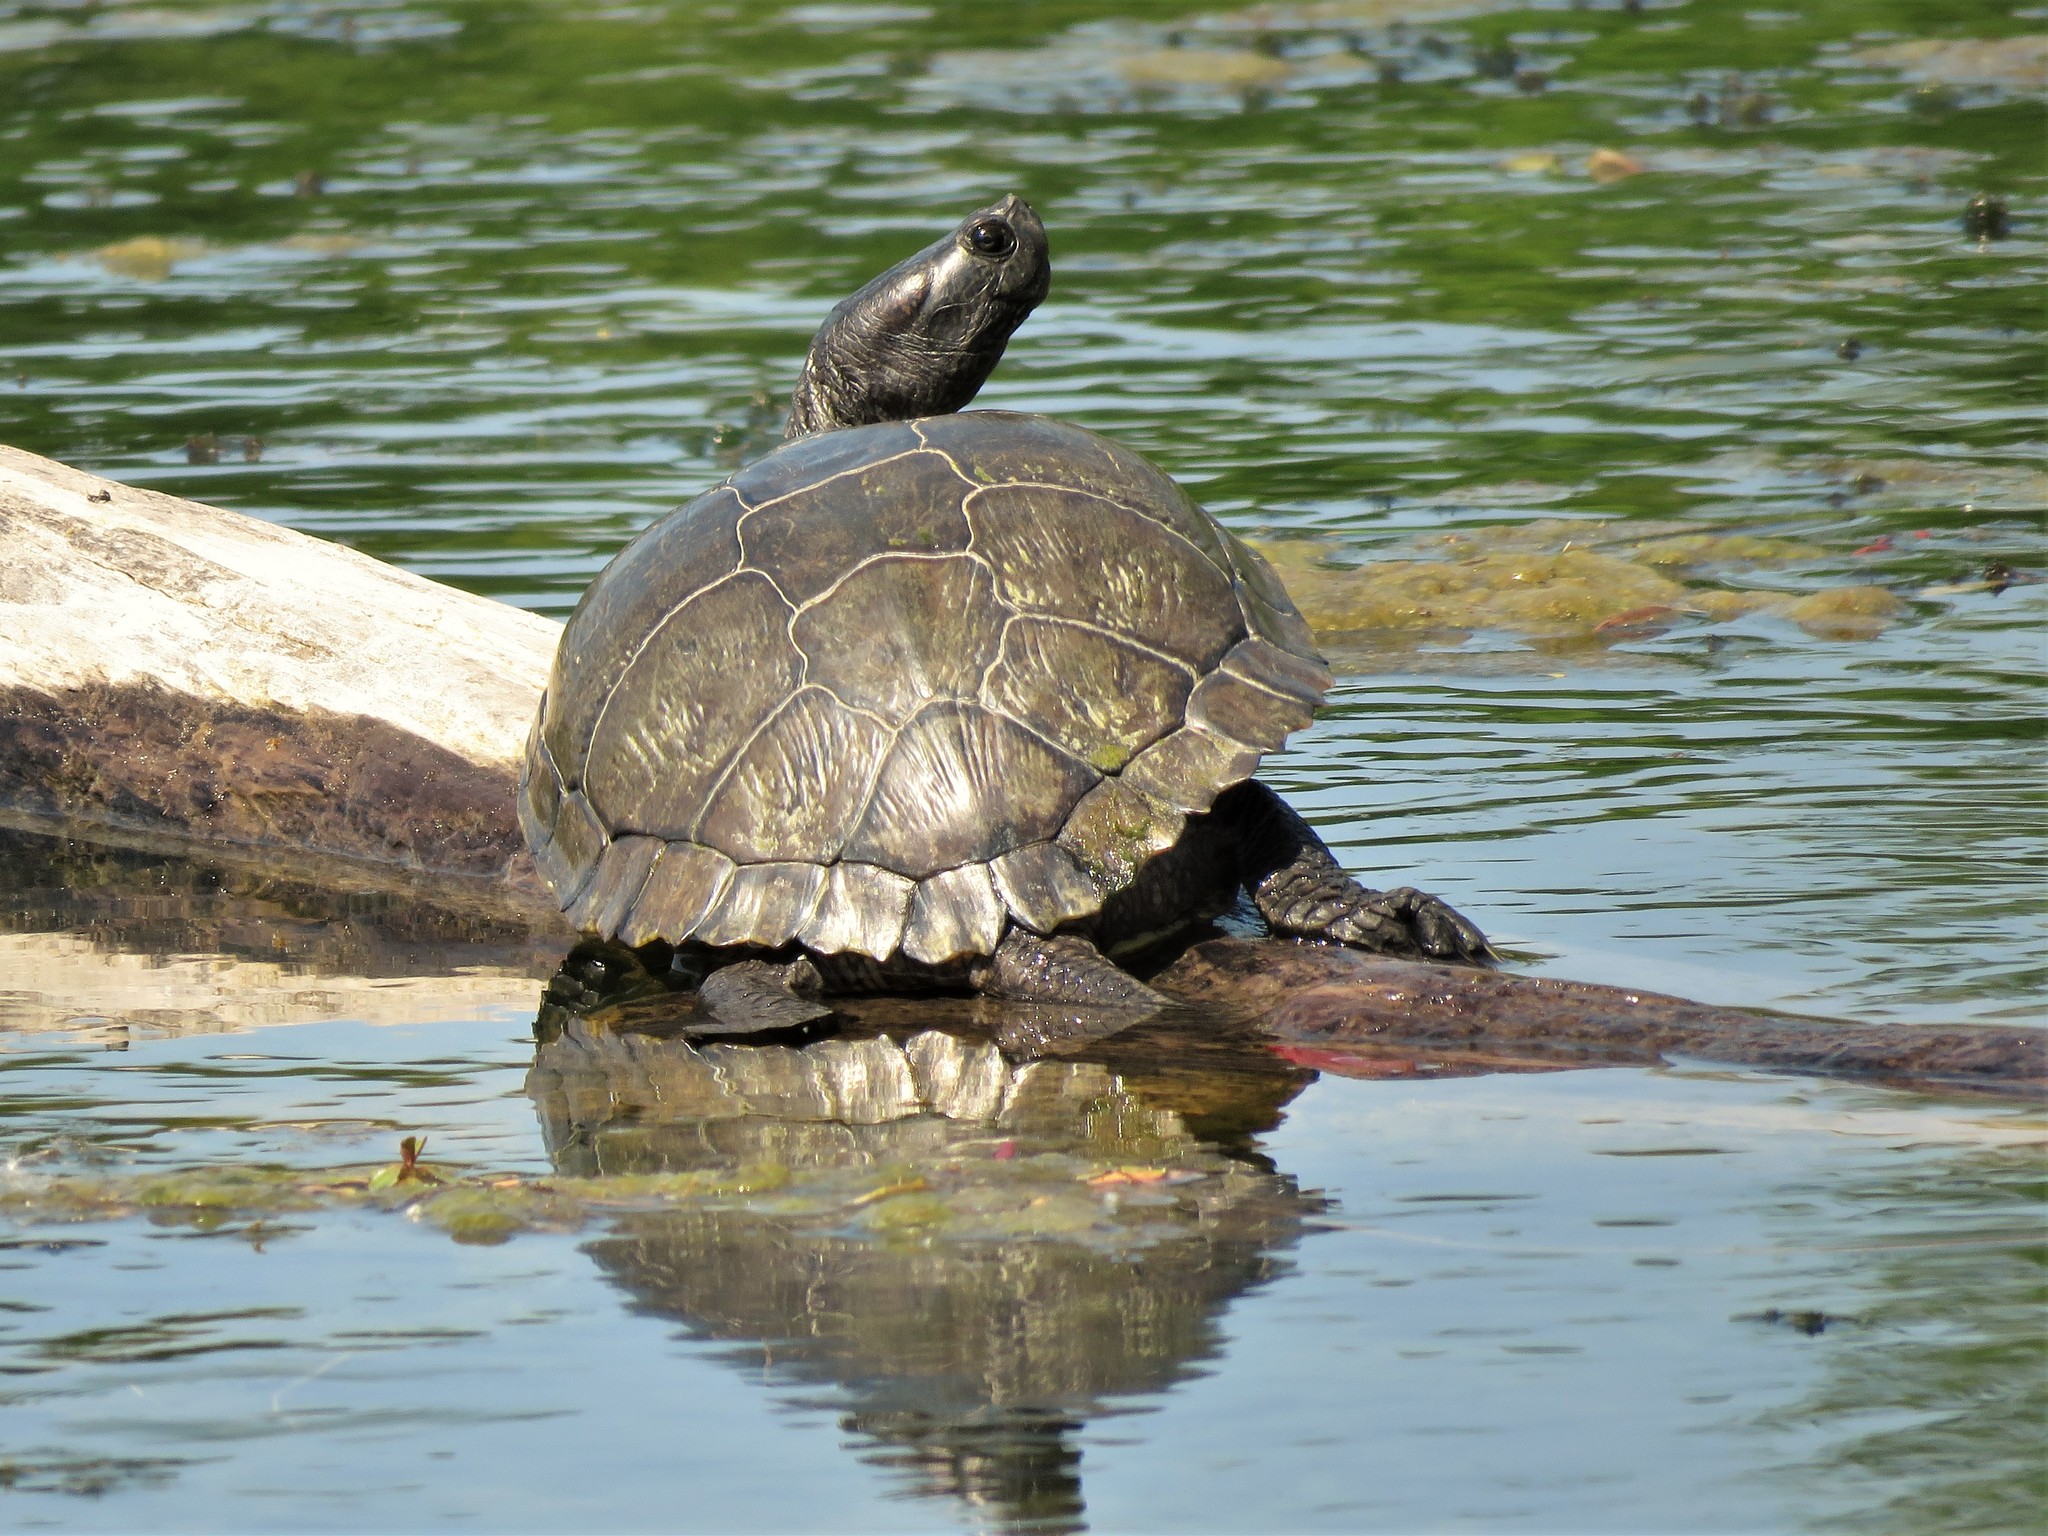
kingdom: Animalia
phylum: Chordata
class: Testudines
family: Emydidae
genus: Trachemys
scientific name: Trachemys scripta
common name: Slider
